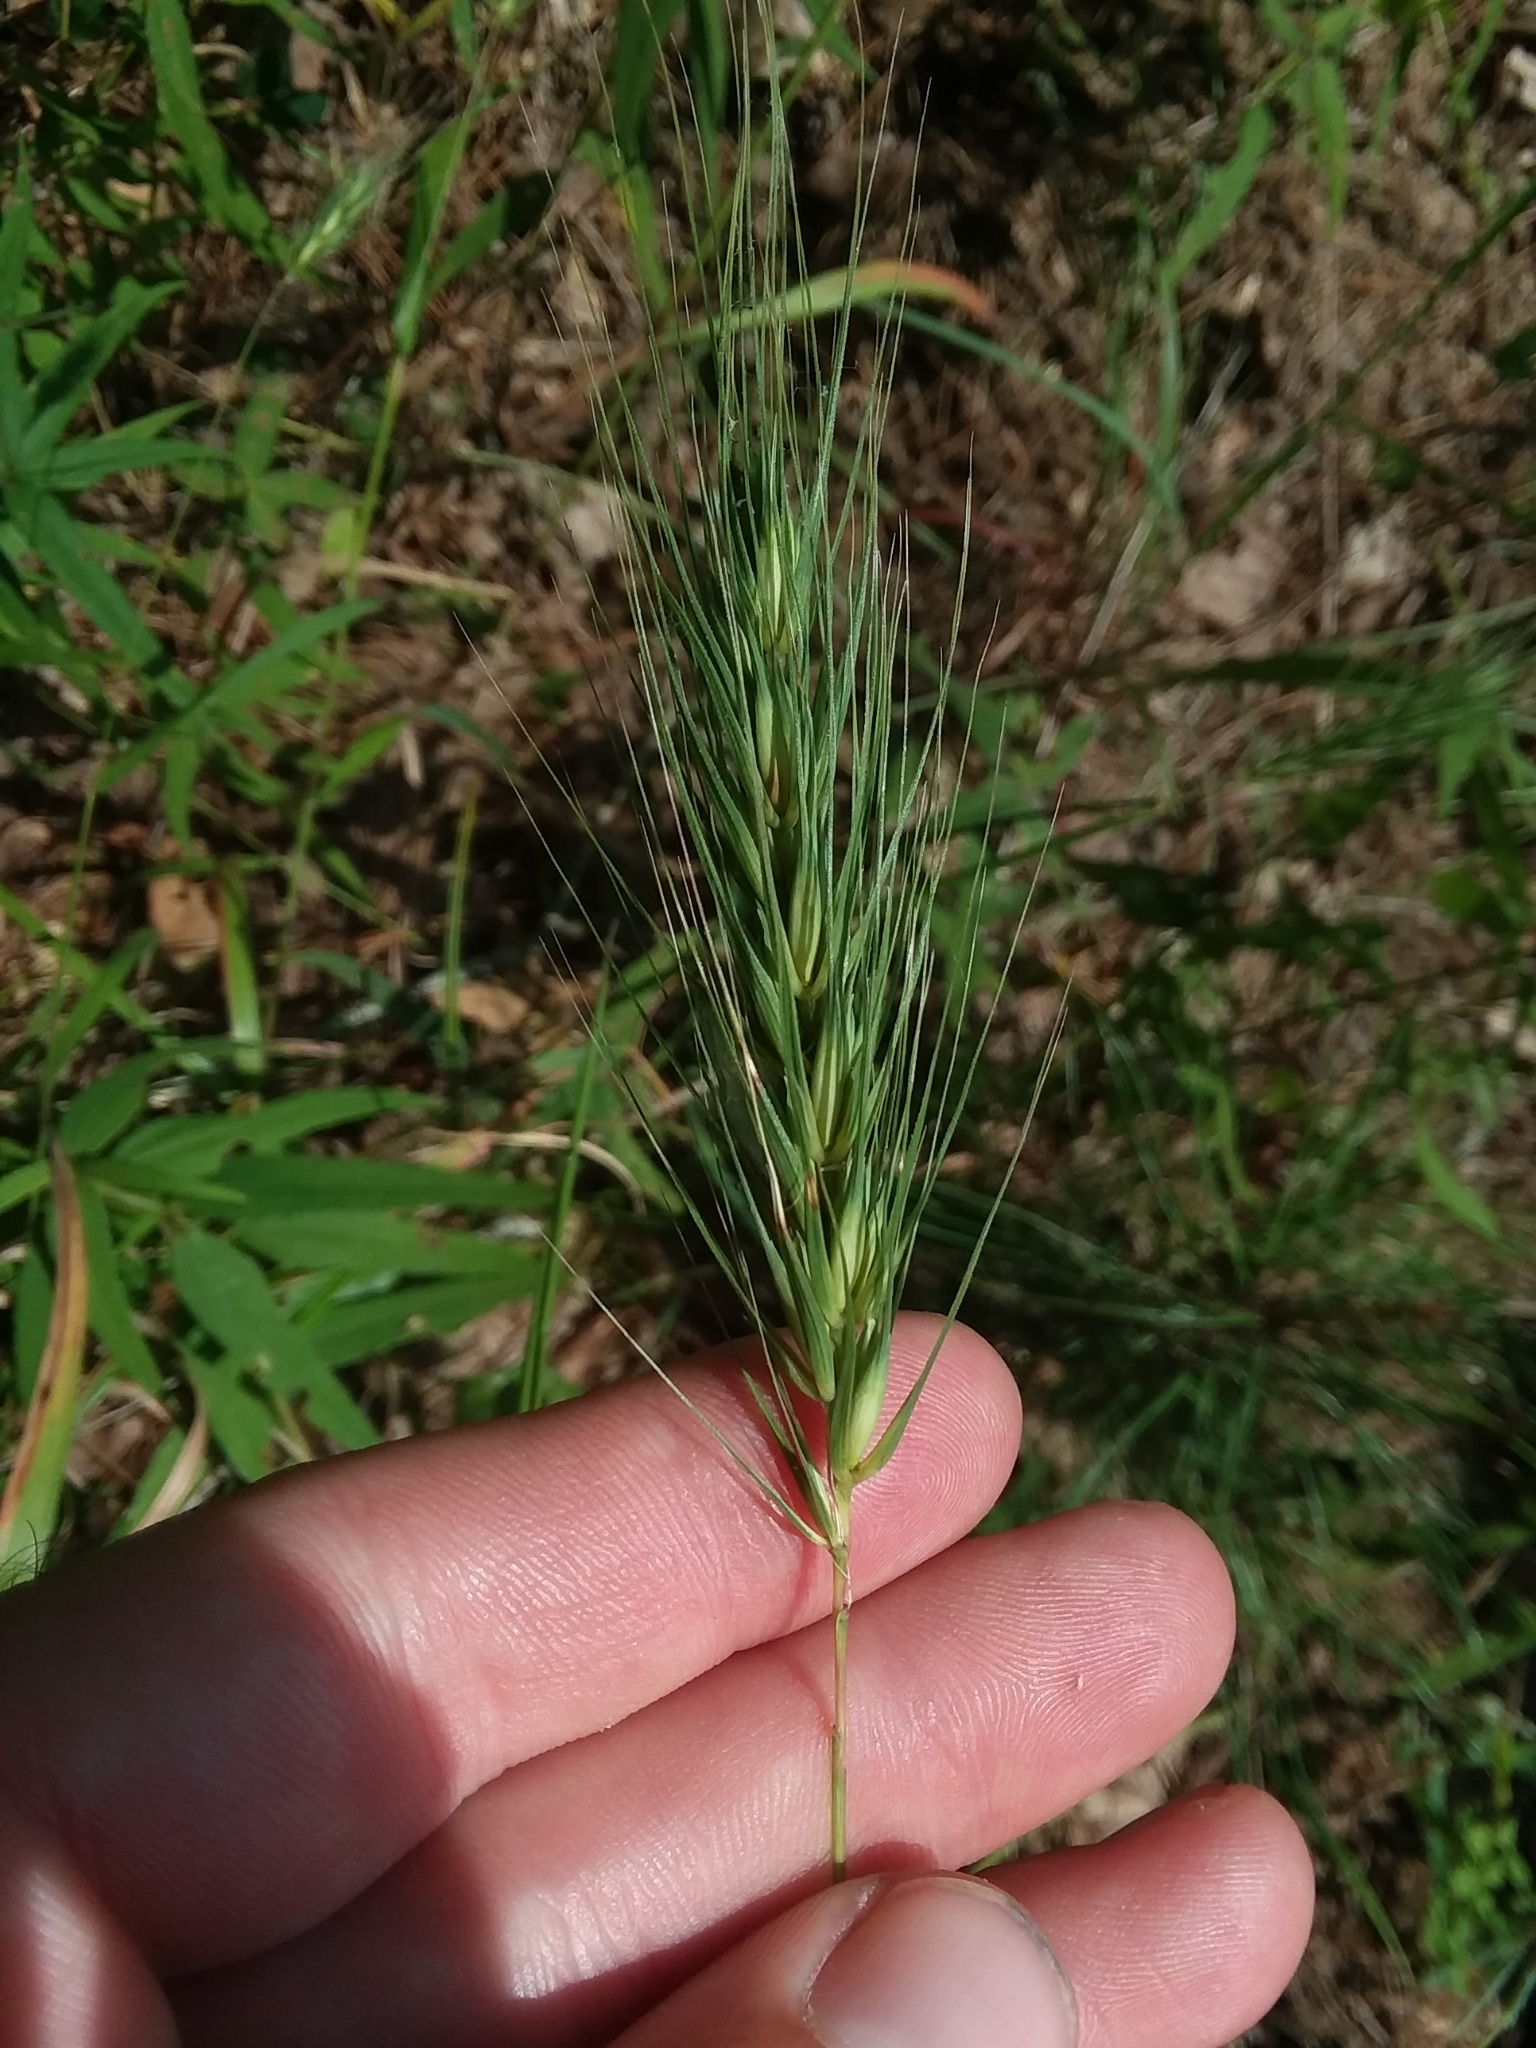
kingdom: Plantae
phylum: Tracheophyta
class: Liliopsida
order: Poales
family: Poaceae
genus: Elymus
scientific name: Elymus virginicus
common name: Common eastern wildrye
